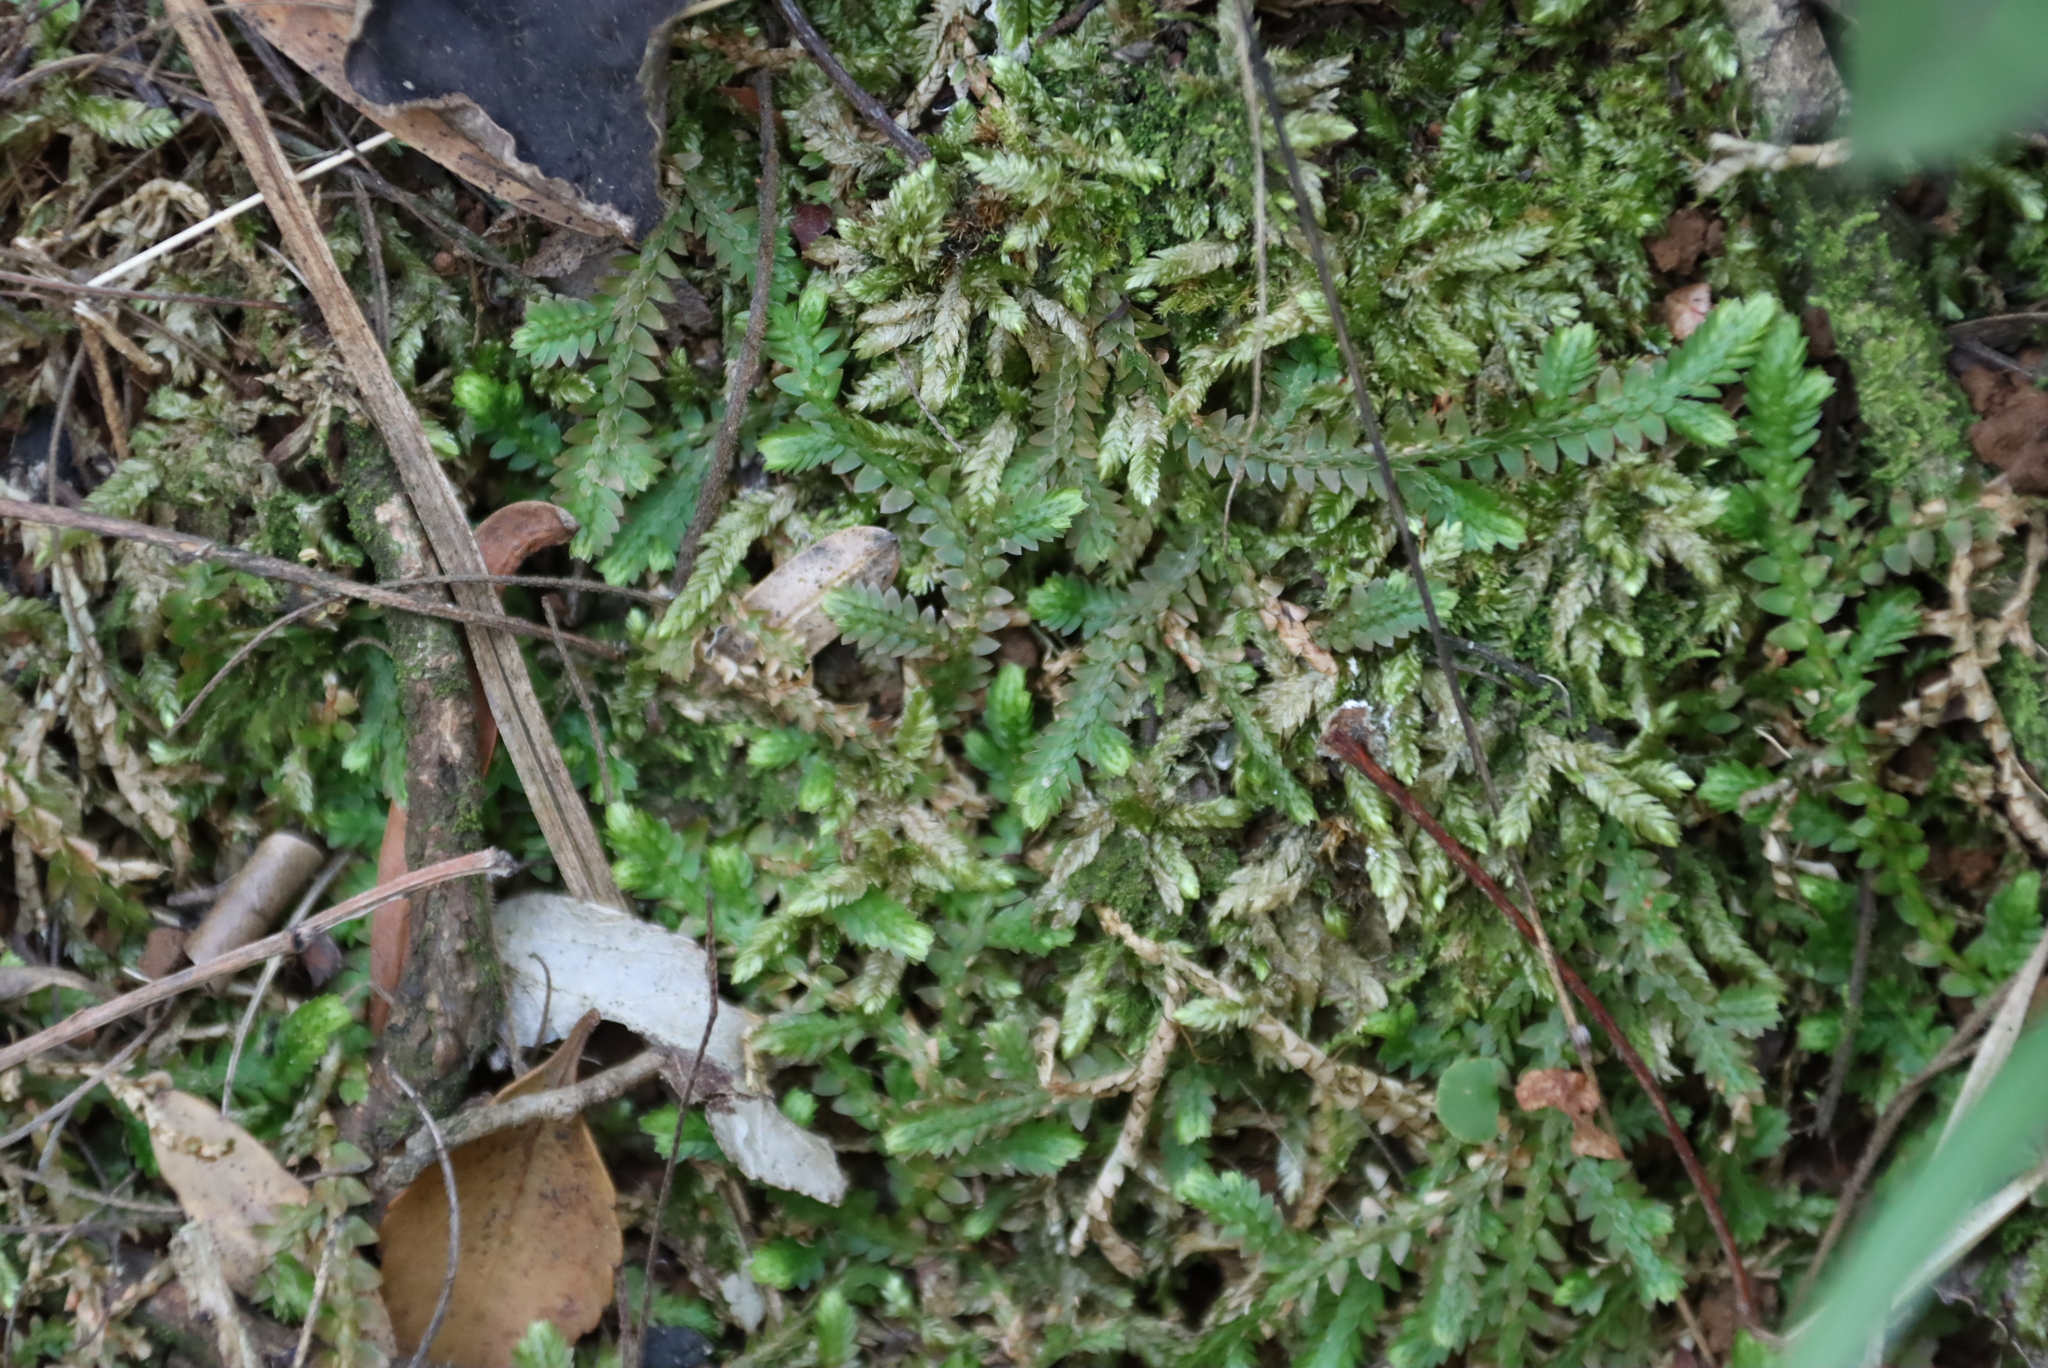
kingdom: Plantae
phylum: Tracheophyta
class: Lycopodiopsida
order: Selaginellales
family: Selaginellaceae
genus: Selaginella
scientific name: Selaginella mittenii
